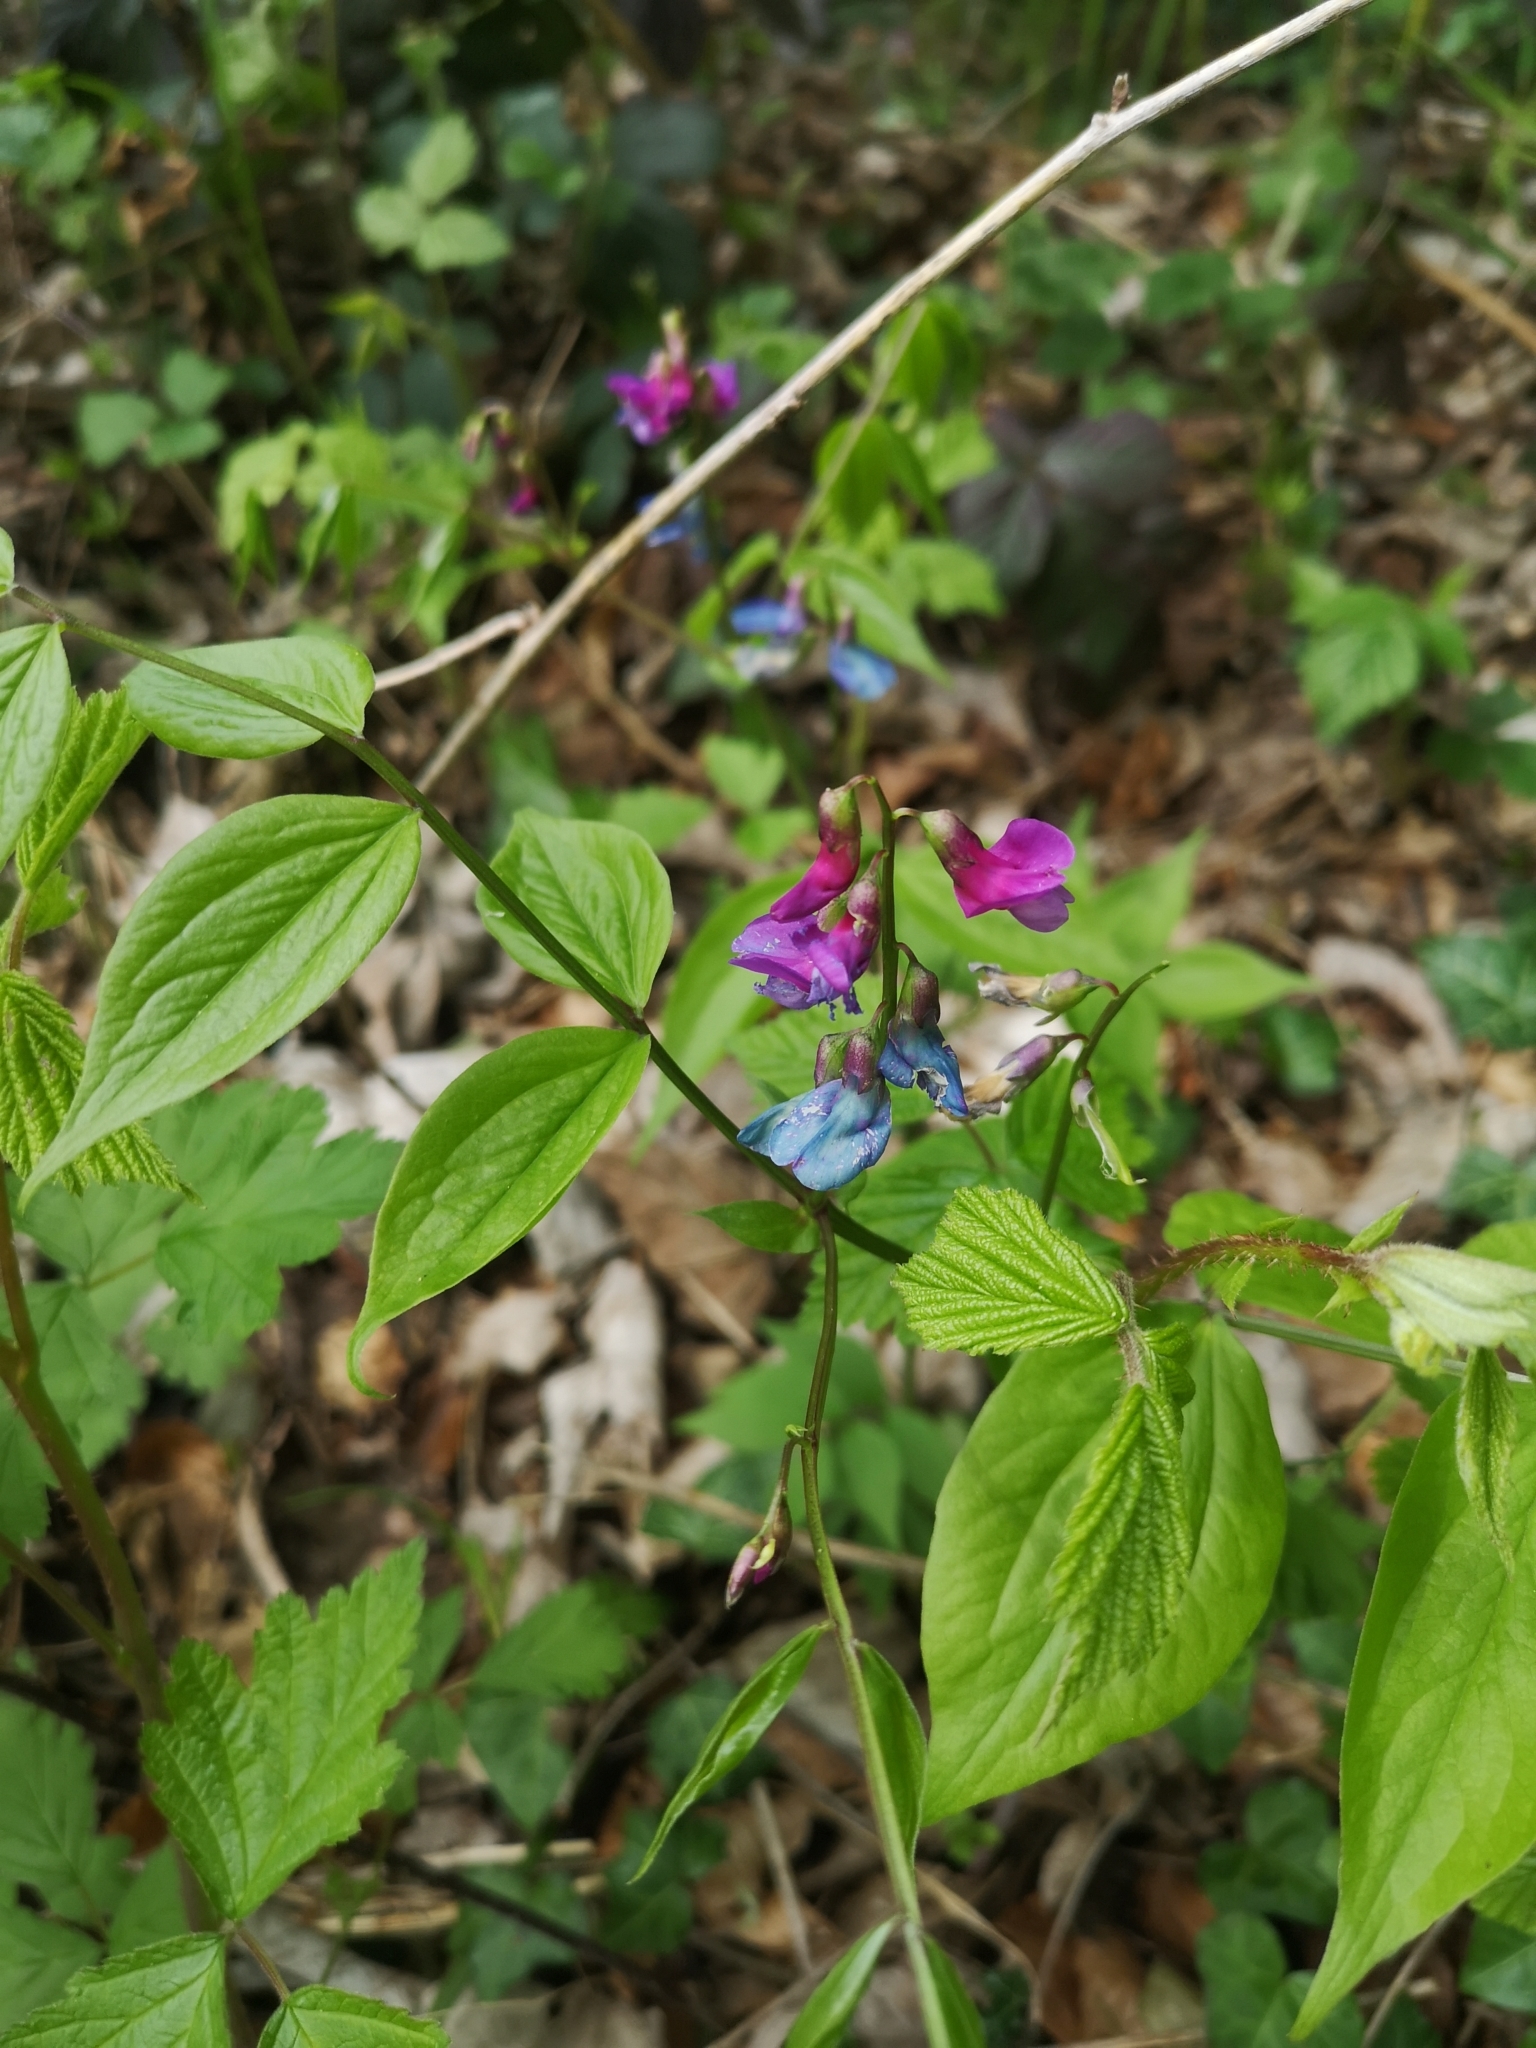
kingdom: Plantae
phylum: Tracheophyta
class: Magnoliopsida
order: Fabales
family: Fabaceae
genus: Lathyrus
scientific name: Lathyrus vernus
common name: Spring pea
